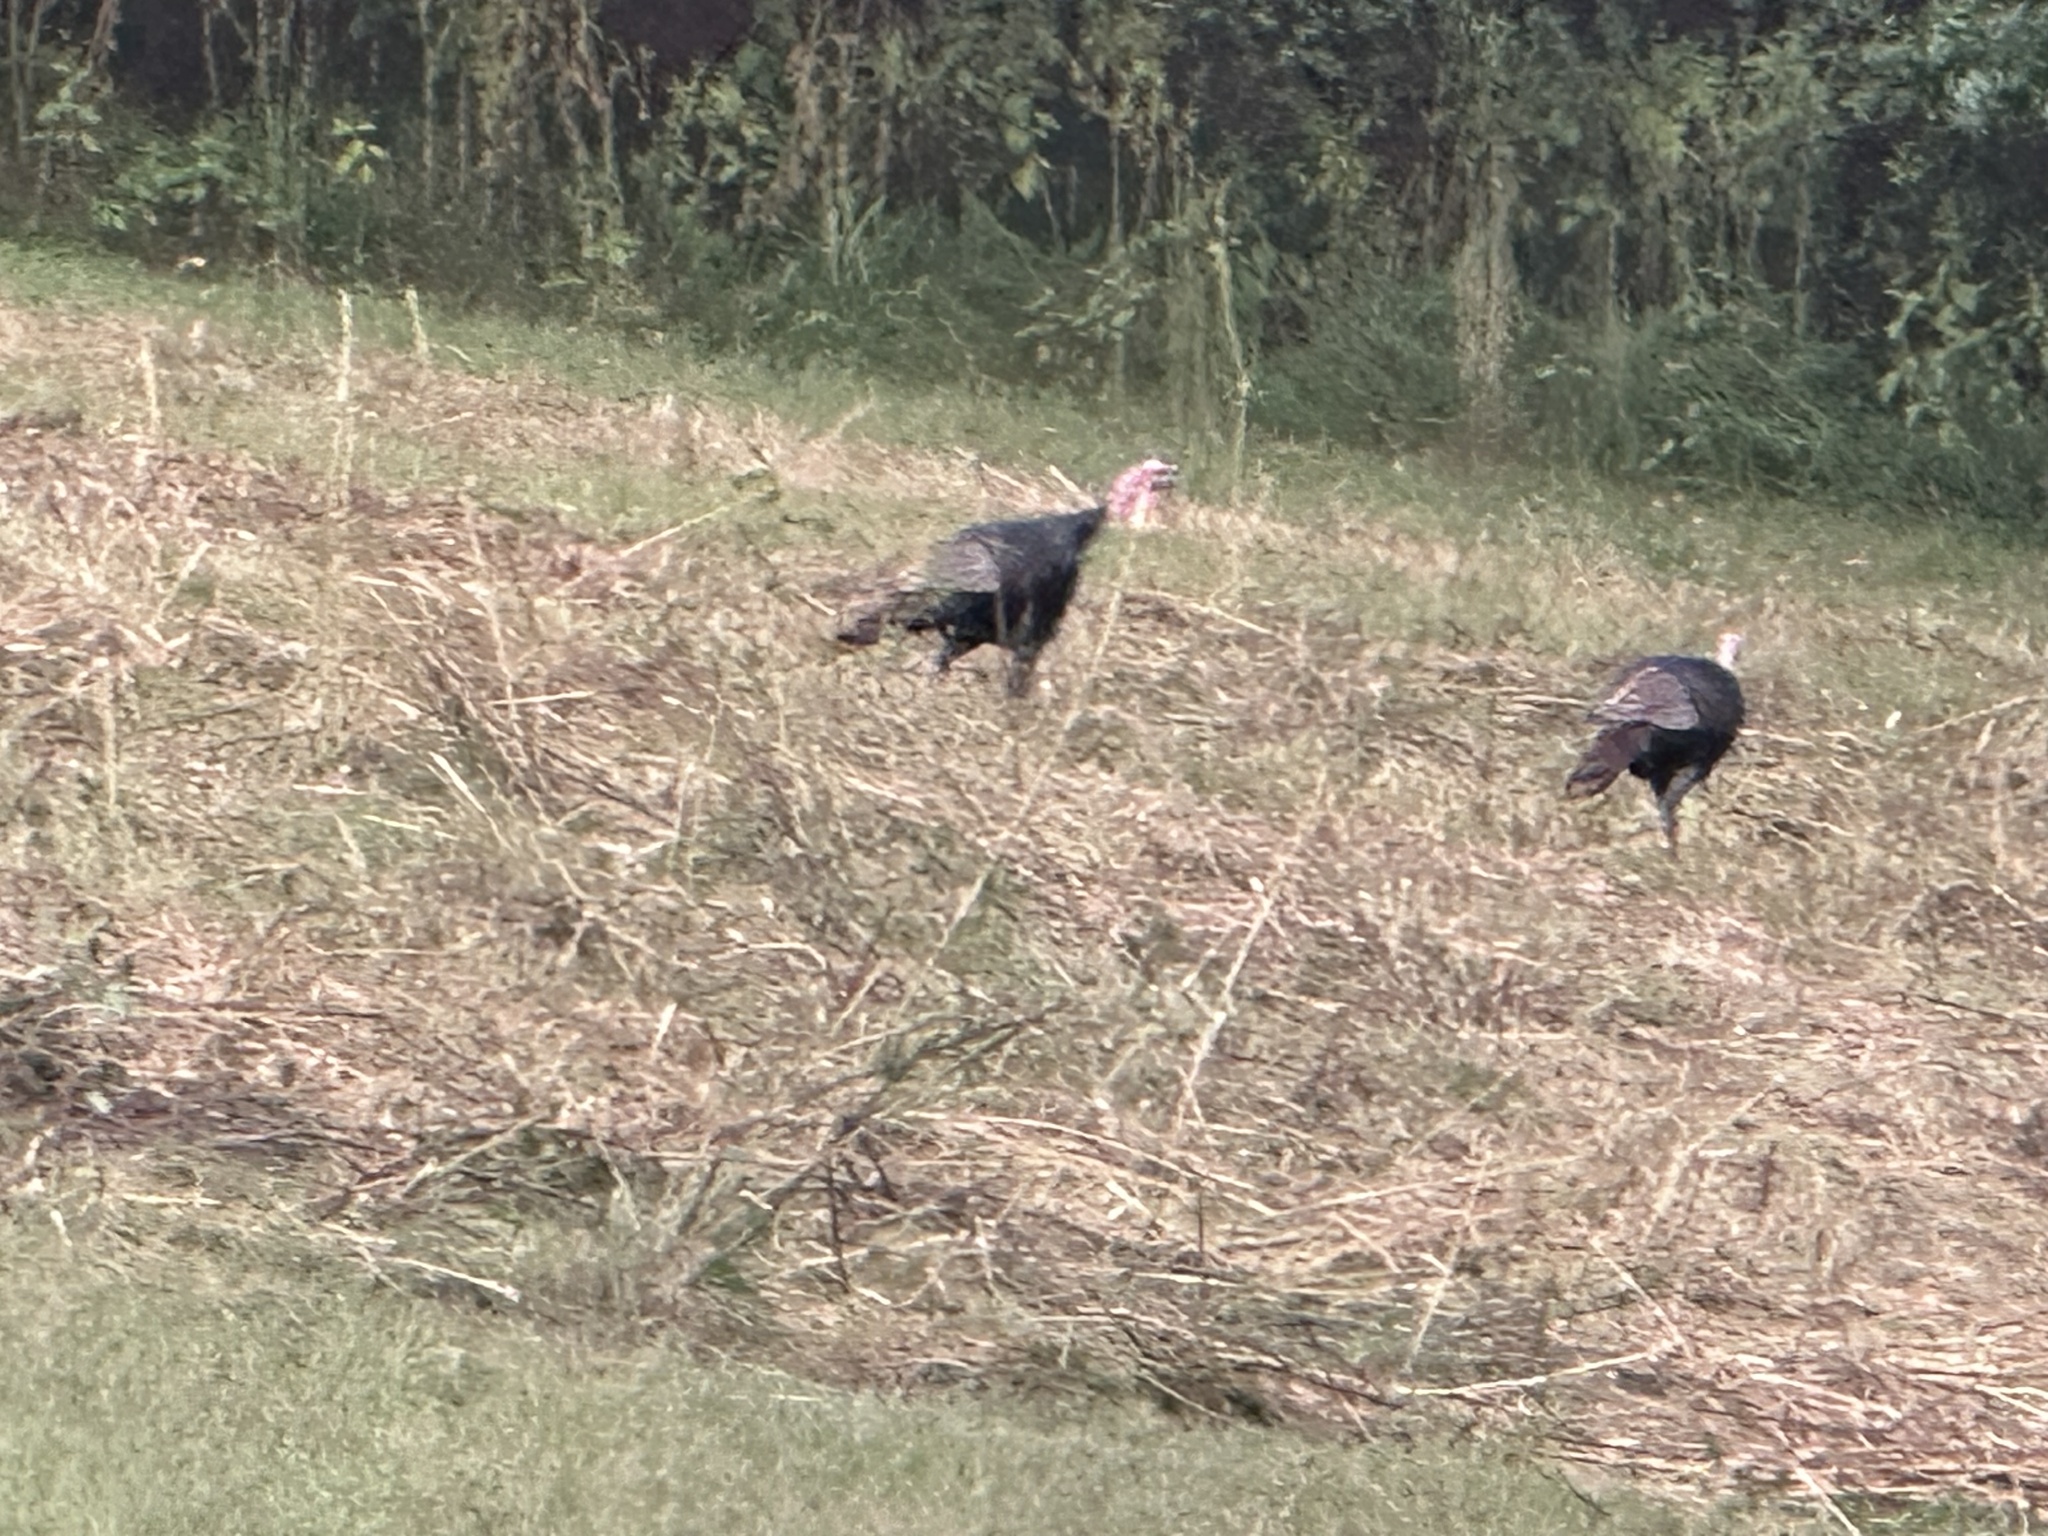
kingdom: Animalia
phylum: Chordata
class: Aves
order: Galliformes
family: Phasianidae
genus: Meleagris
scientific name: Meleagris gallopavo
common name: Wild turkey
